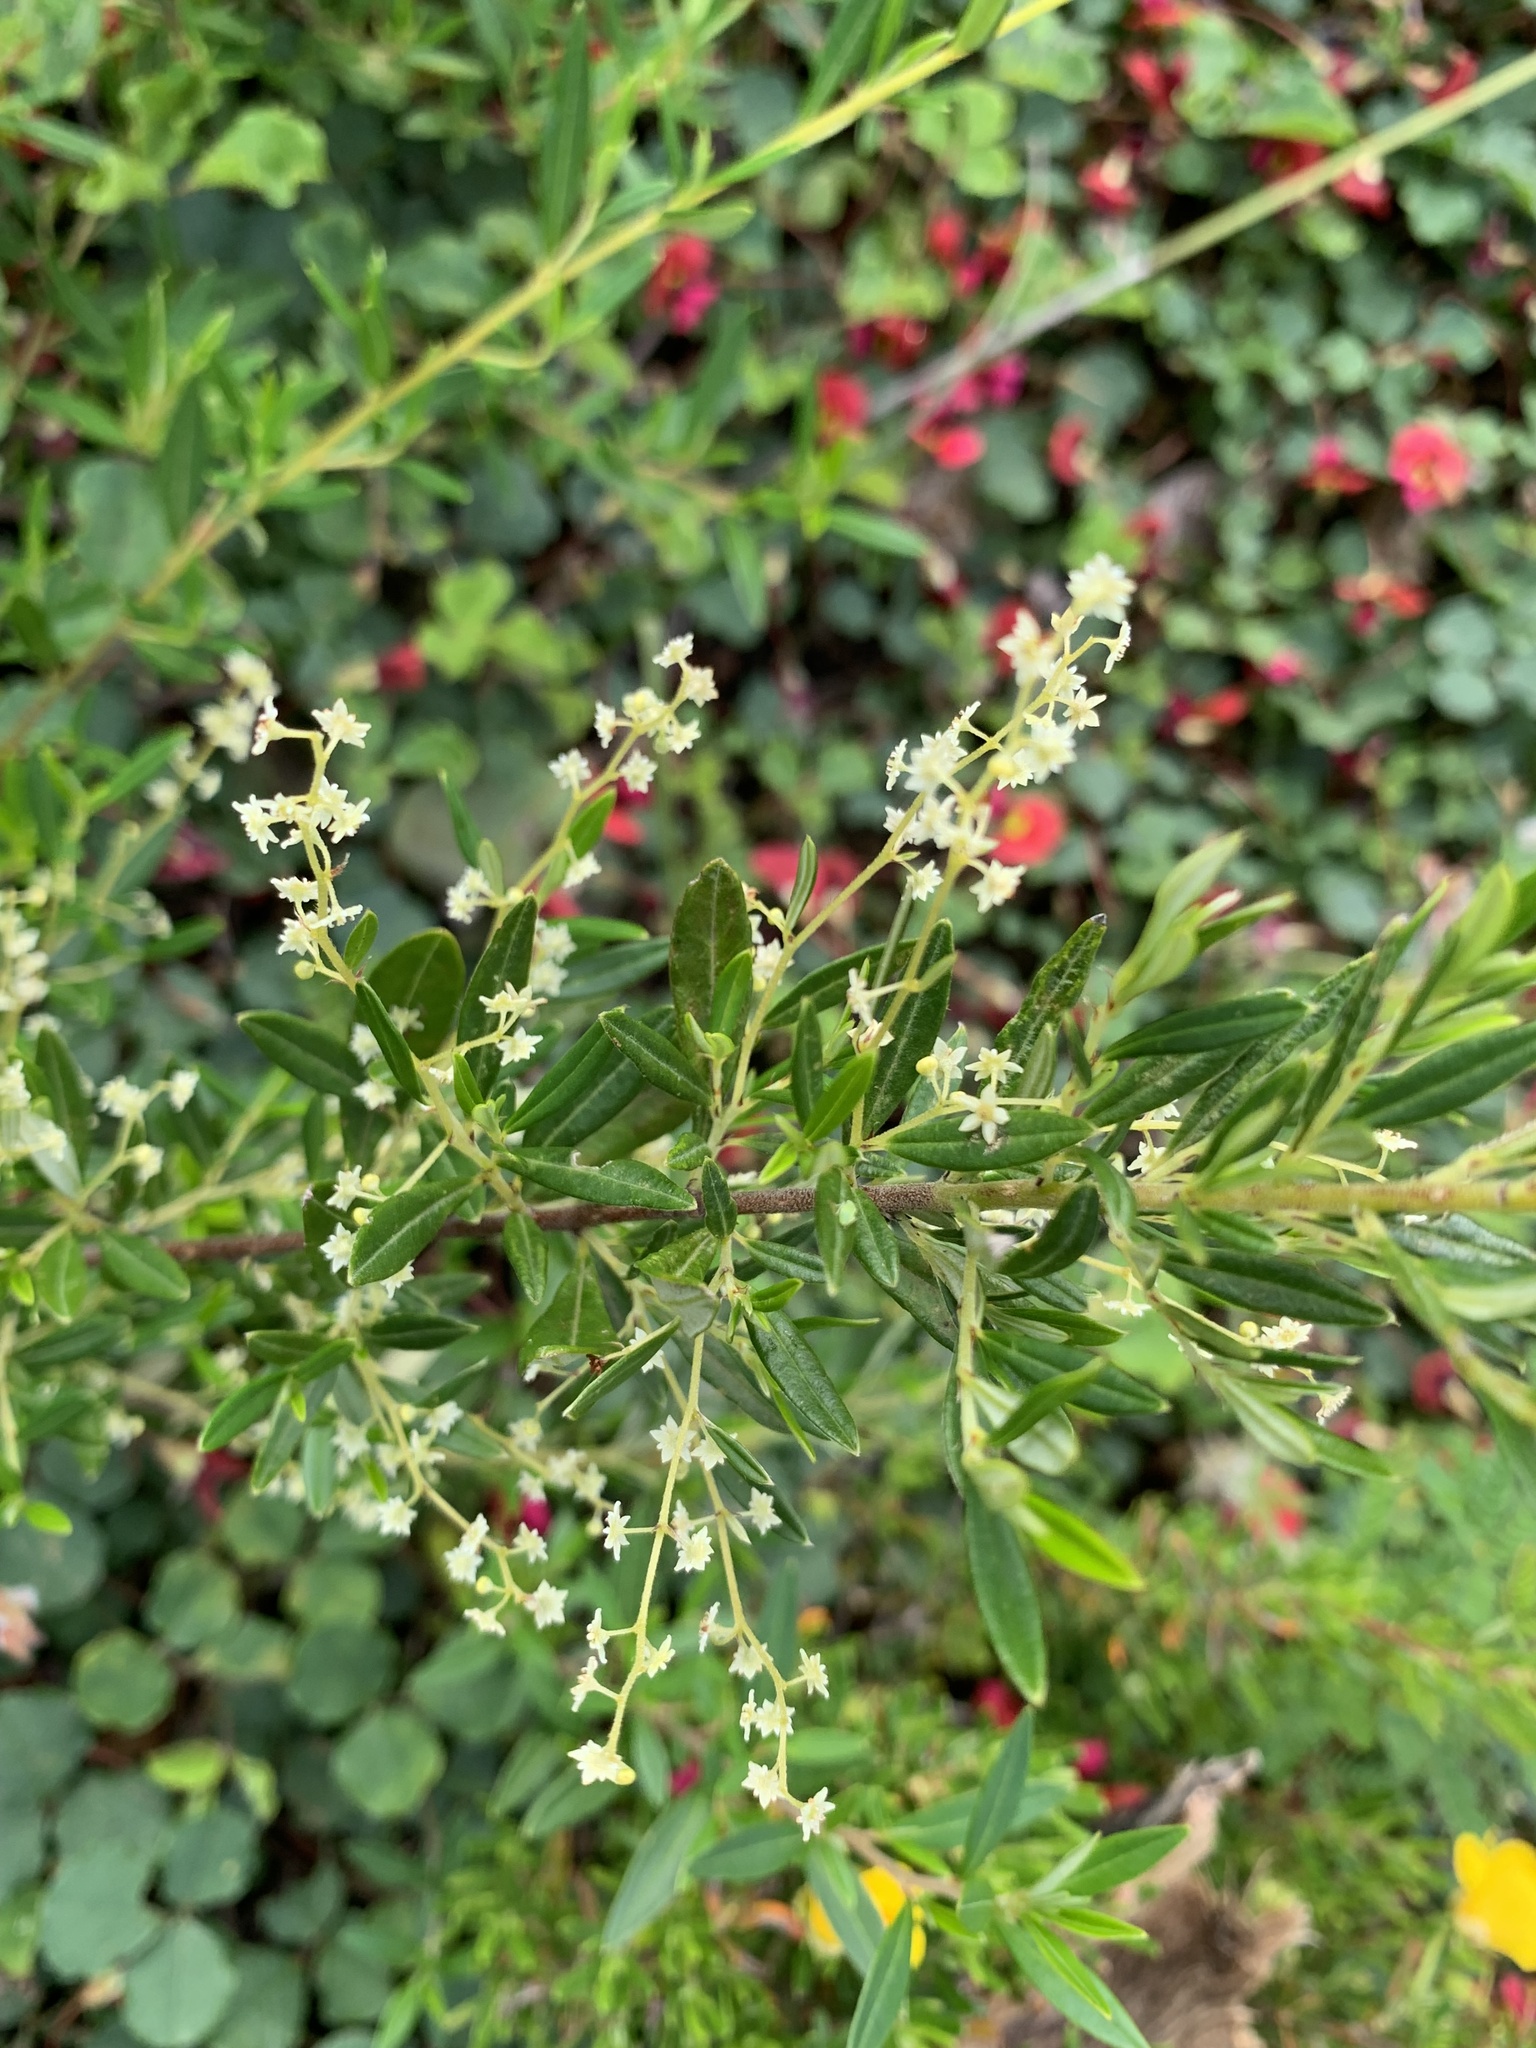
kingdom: Plantae
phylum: Tracheophyta
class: Magnoliopsida
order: Rosales
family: Rhamnaceae
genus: Trymalium
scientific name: Trymalium ledifolium
